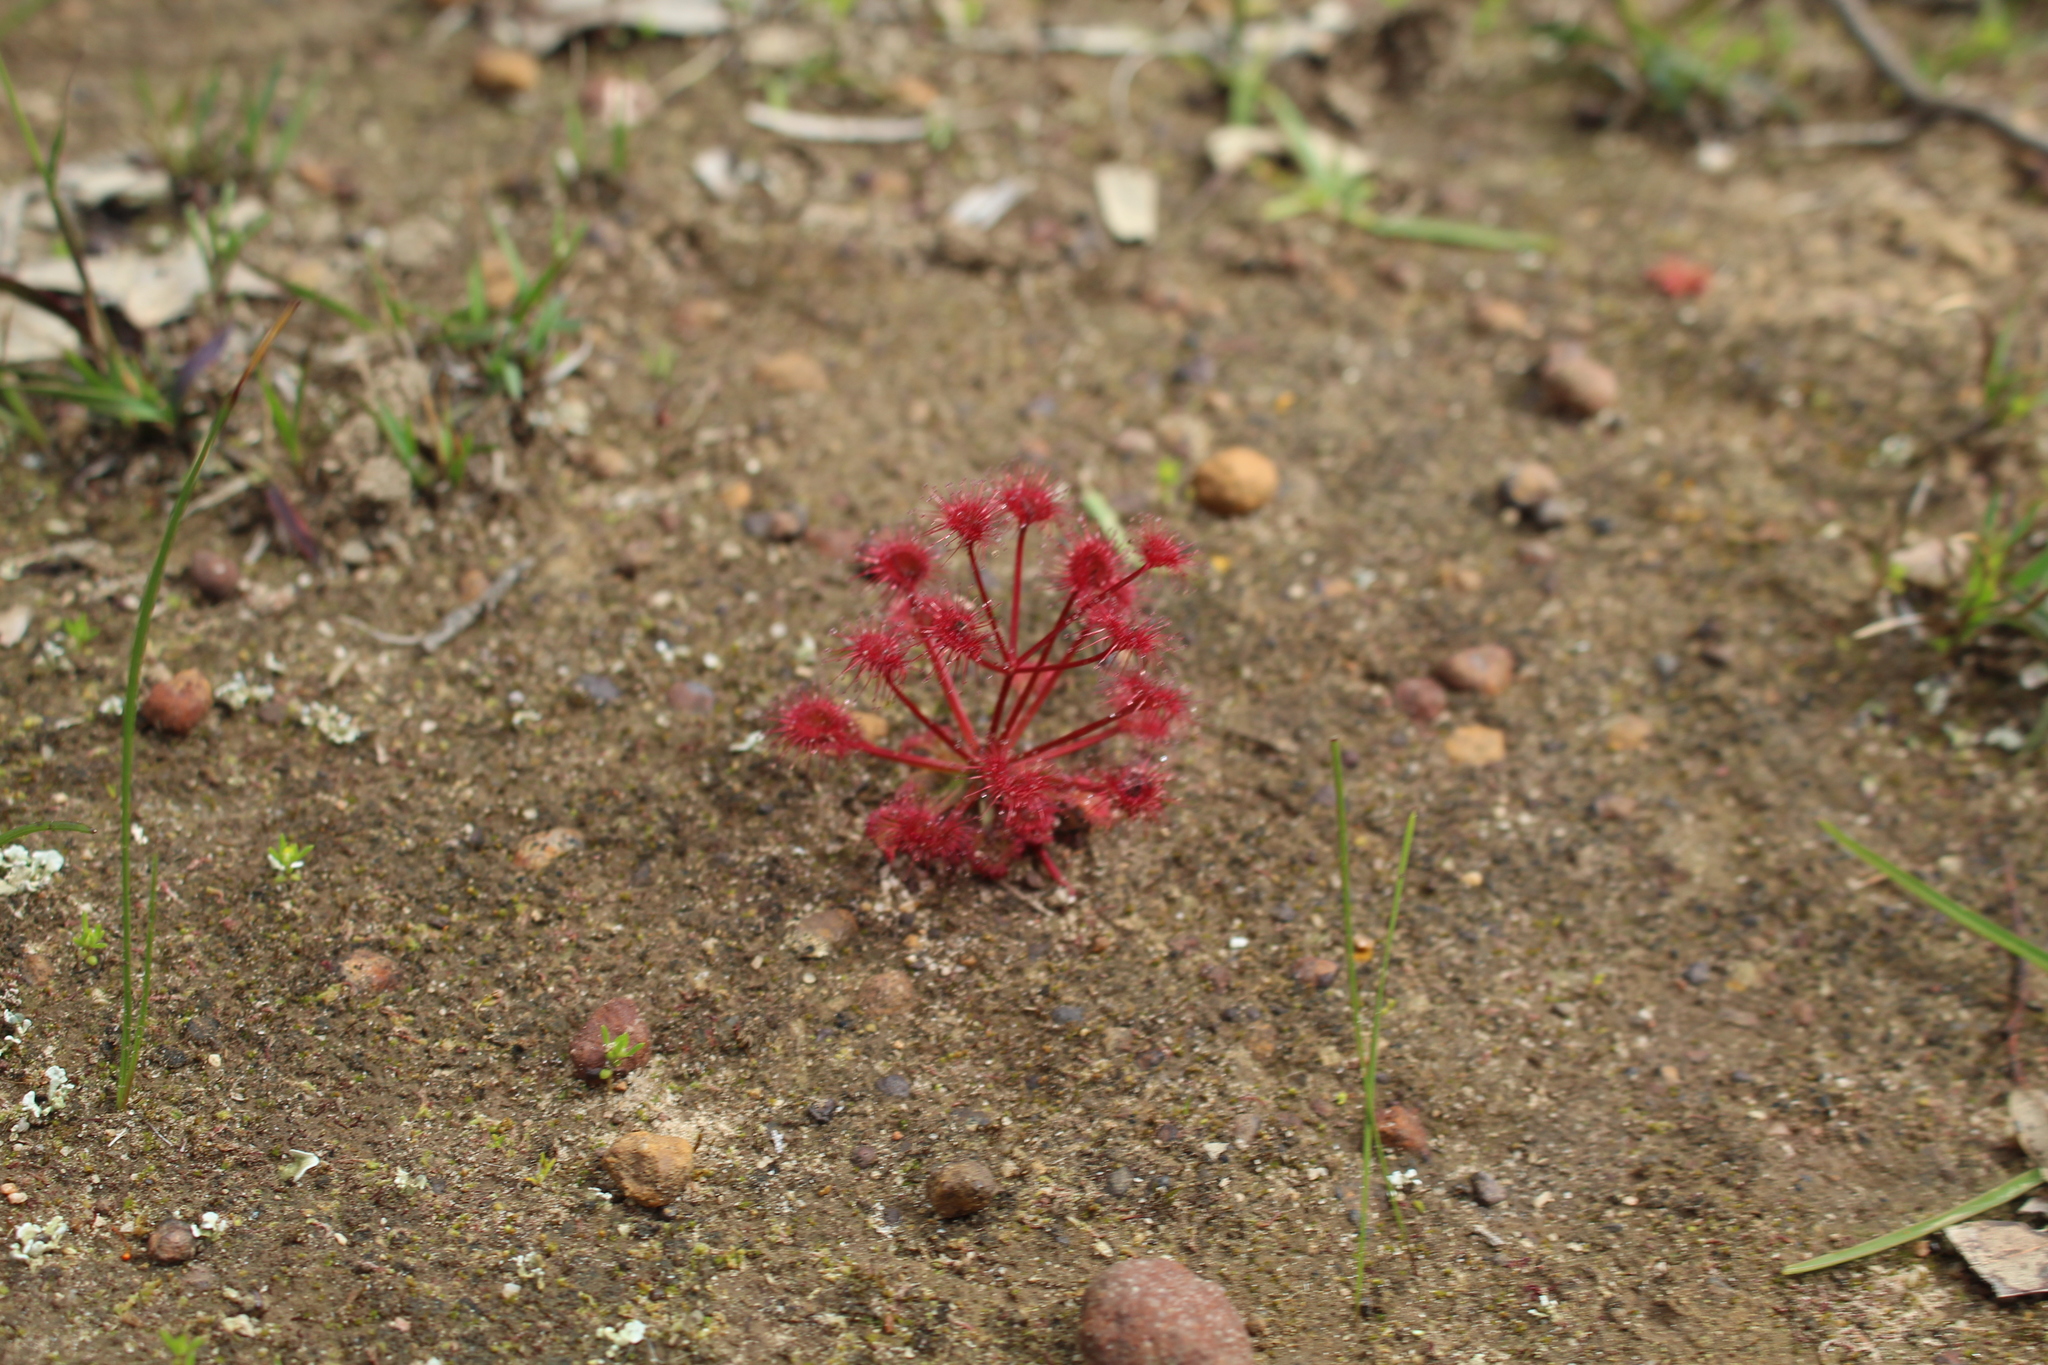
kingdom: Plantae
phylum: Tracheophyta
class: Magnoliopsida
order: Caryophyllales
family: Droseraceae
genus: Drosera
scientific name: Drosera stolonifera
